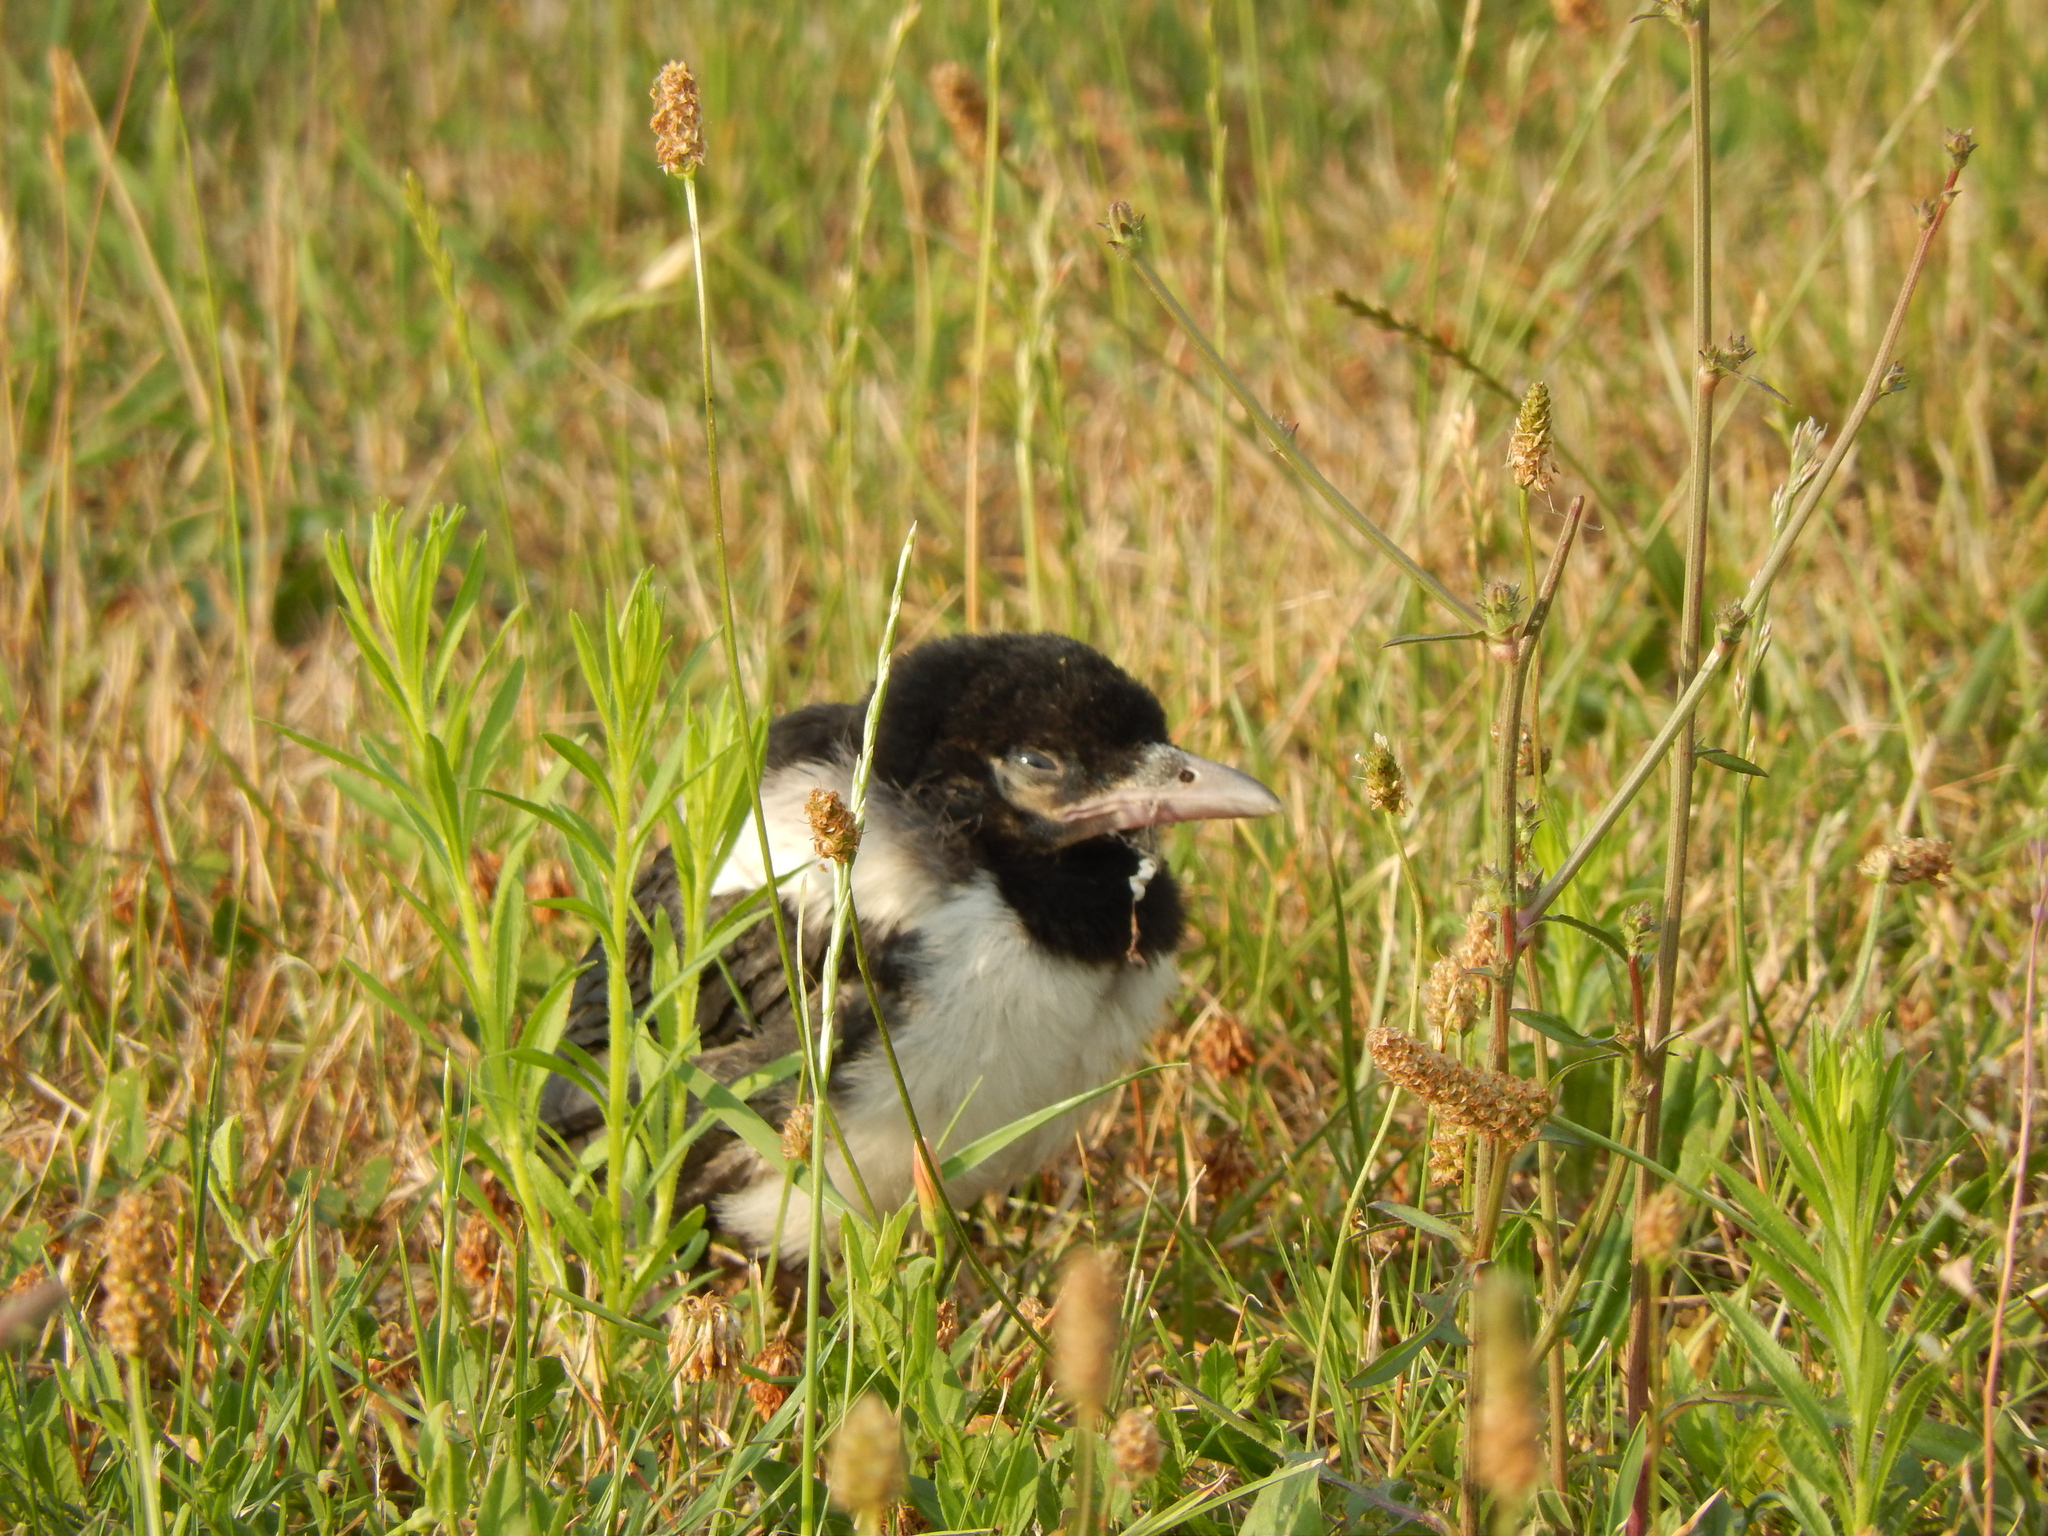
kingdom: Animalia
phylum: Chordata
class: Aves
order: Passeriformes
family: Corvidae
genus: Pica
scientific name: Pica pica
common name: Eurasian magpie
